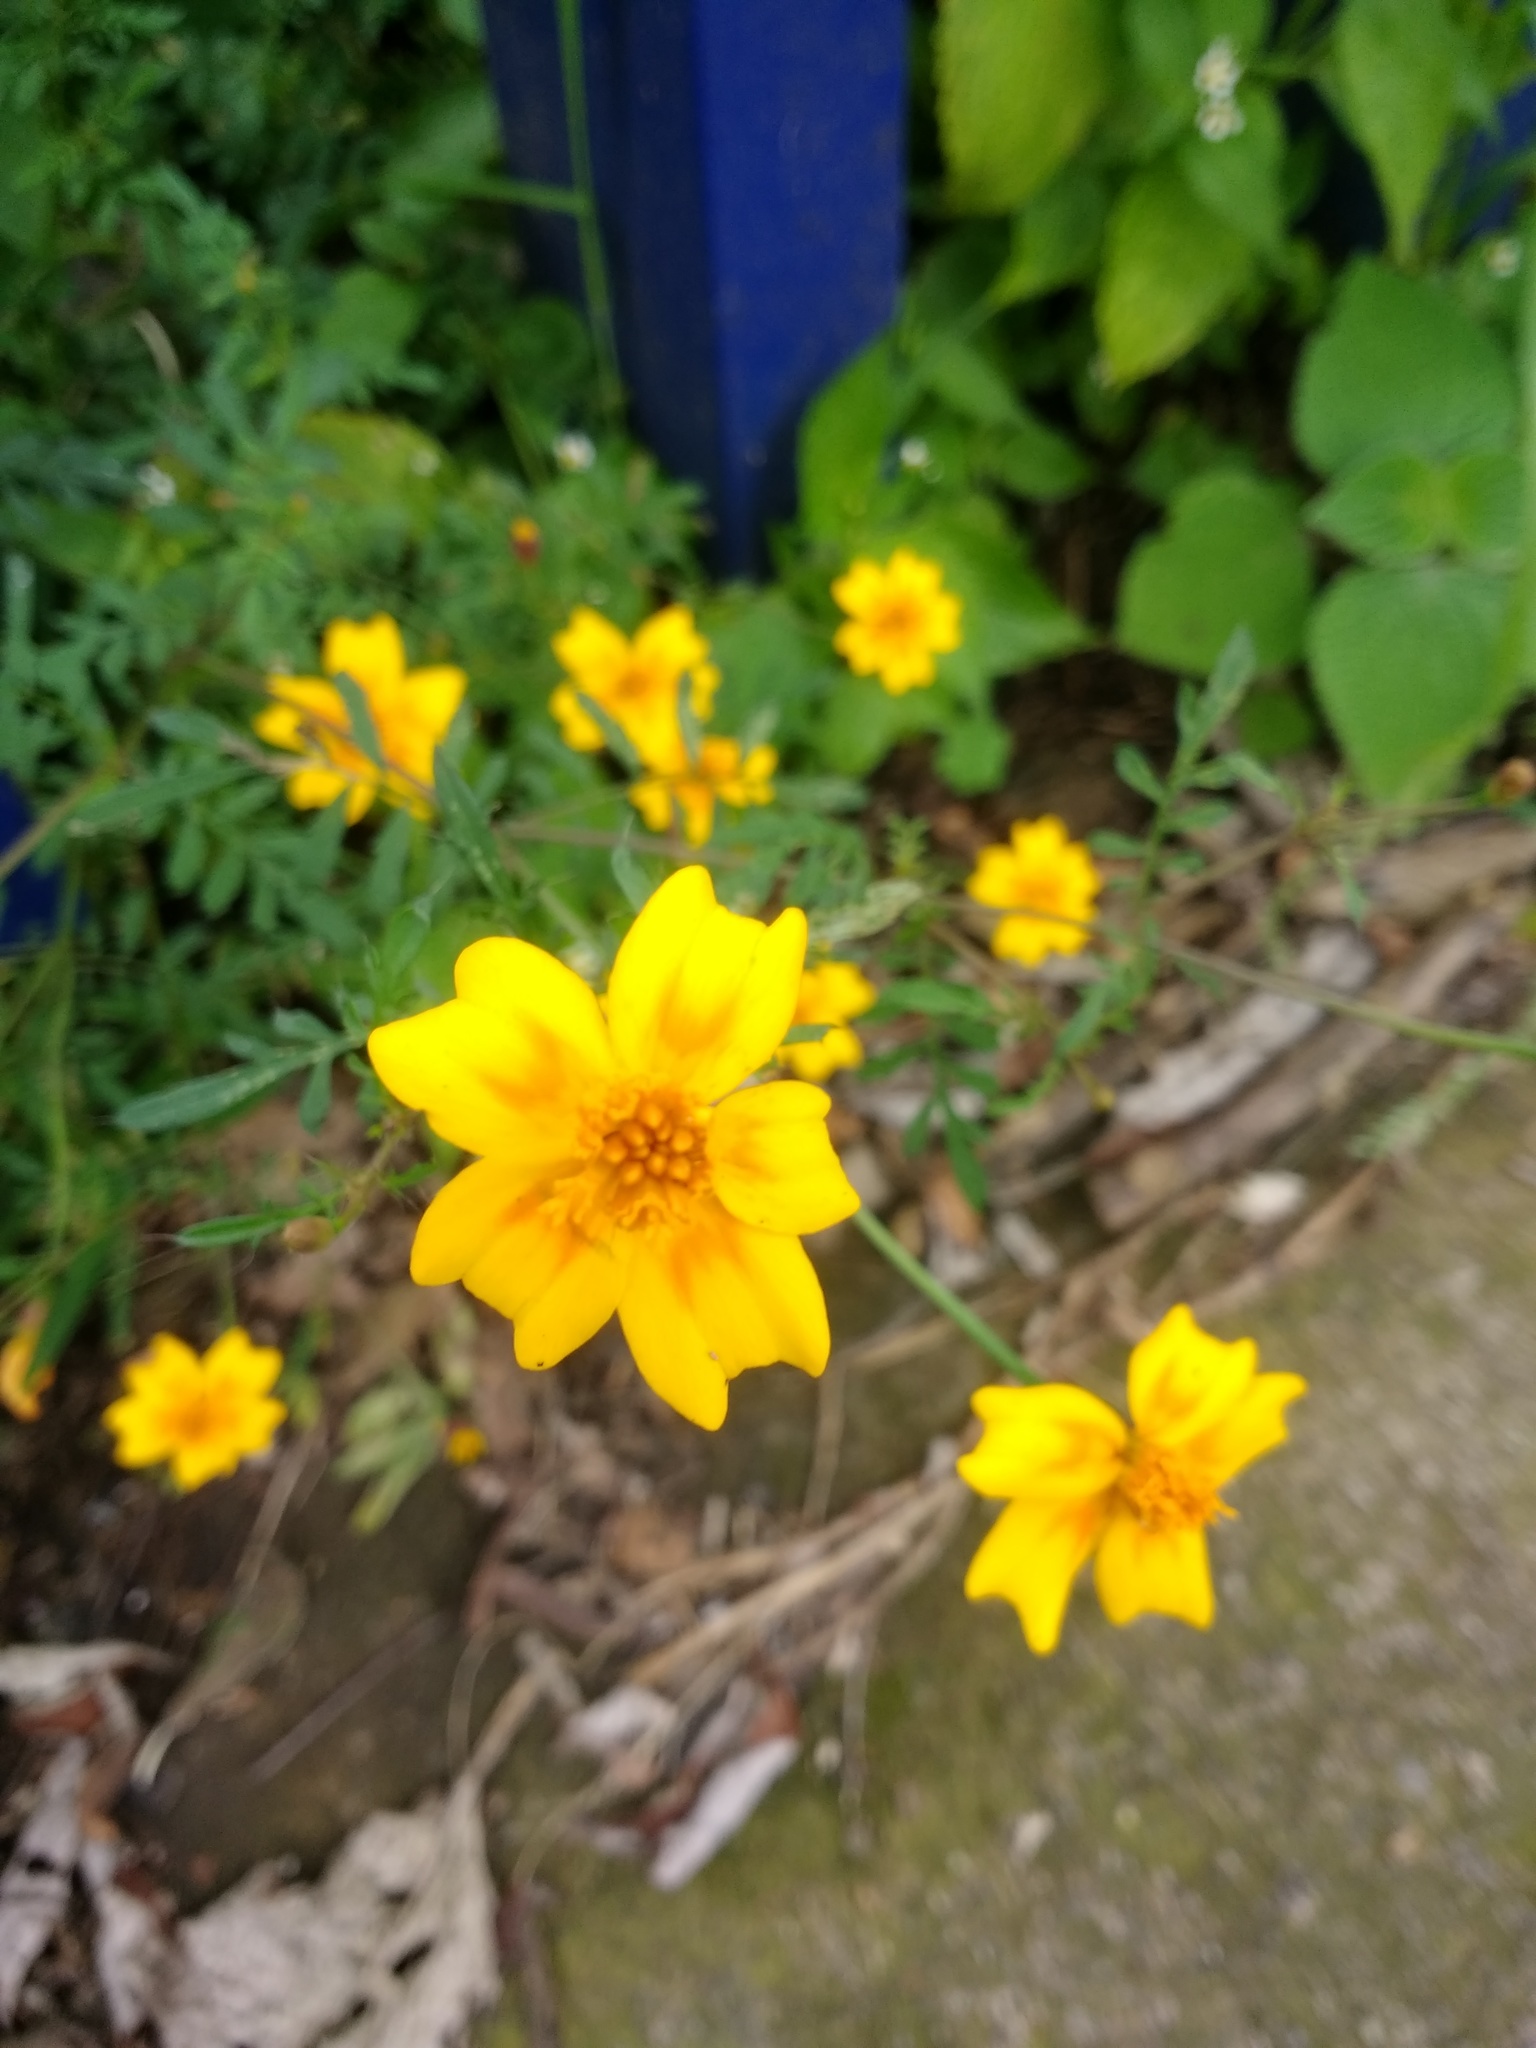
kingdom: Plantae
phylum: Tracheophyta
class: Magnoliopsida
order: Asterales
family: Asteraceae
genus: Tagetes
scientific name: Tagetes lunulata
